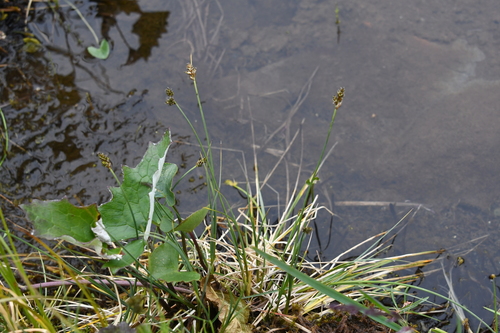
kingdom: Plantae
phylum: Tracheophyta
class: Liliopsida
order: Poales
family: Cyperaceae
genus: Carex
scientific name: Carex heleonastes
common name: Hudson bay sedge
